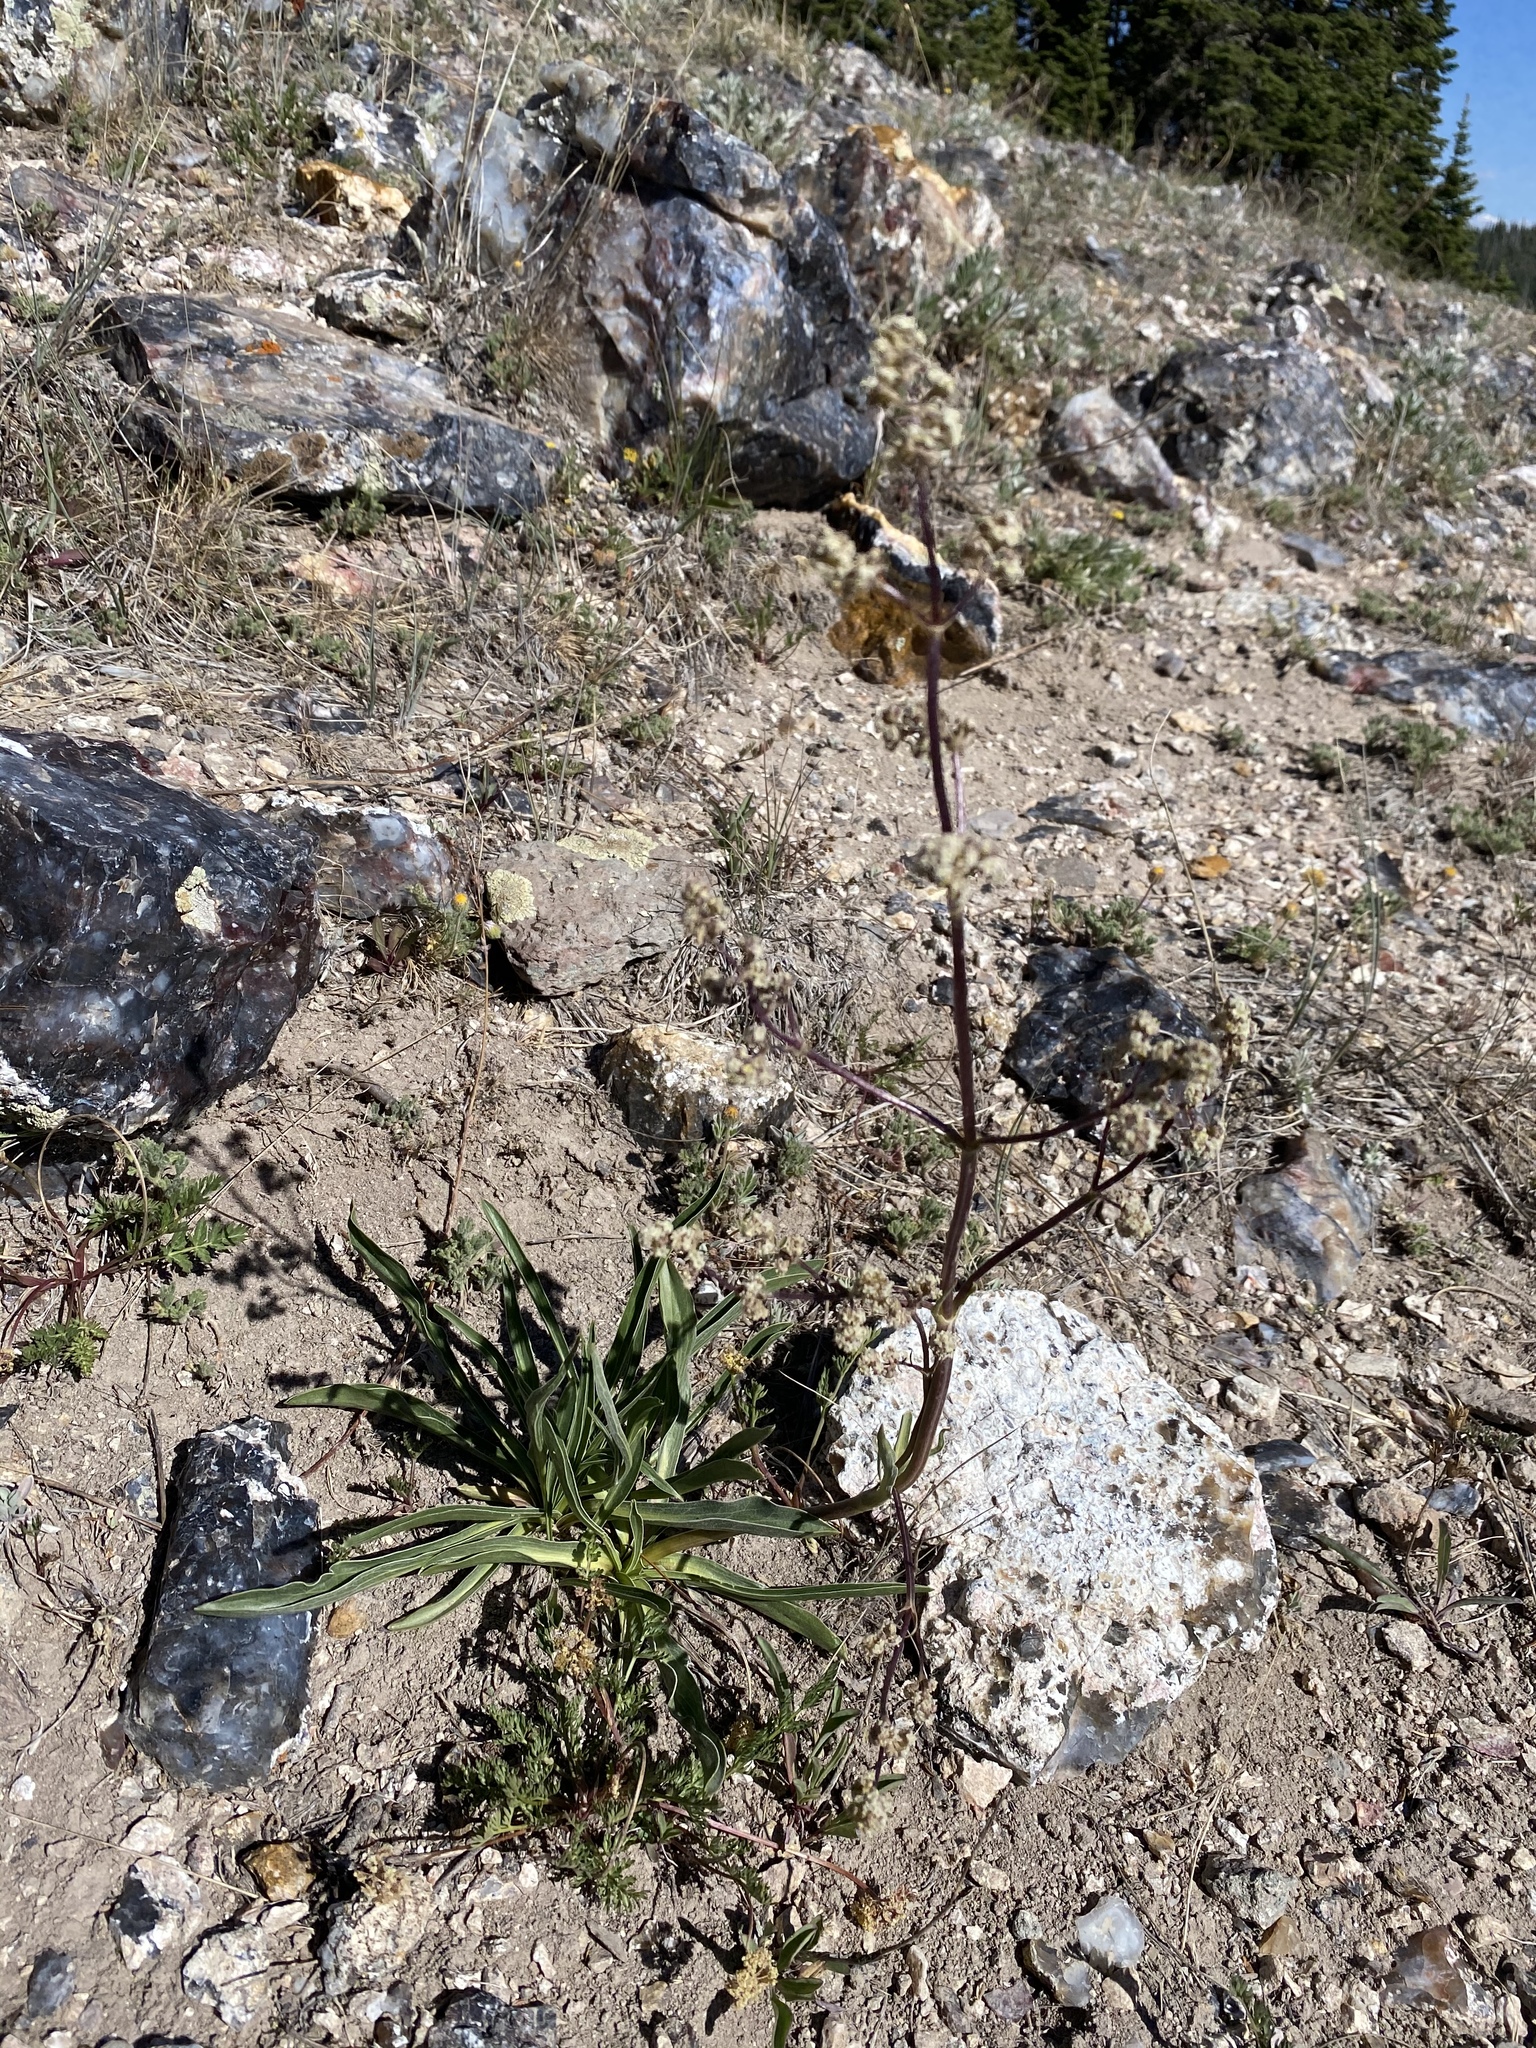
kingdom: Plantae
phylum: Tracheophyta
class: Magnoliopsida
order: Dipsacales
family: Caprifoliaceae
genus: Valeriana
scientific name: Valeriana edulis
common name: Taproot valerian
